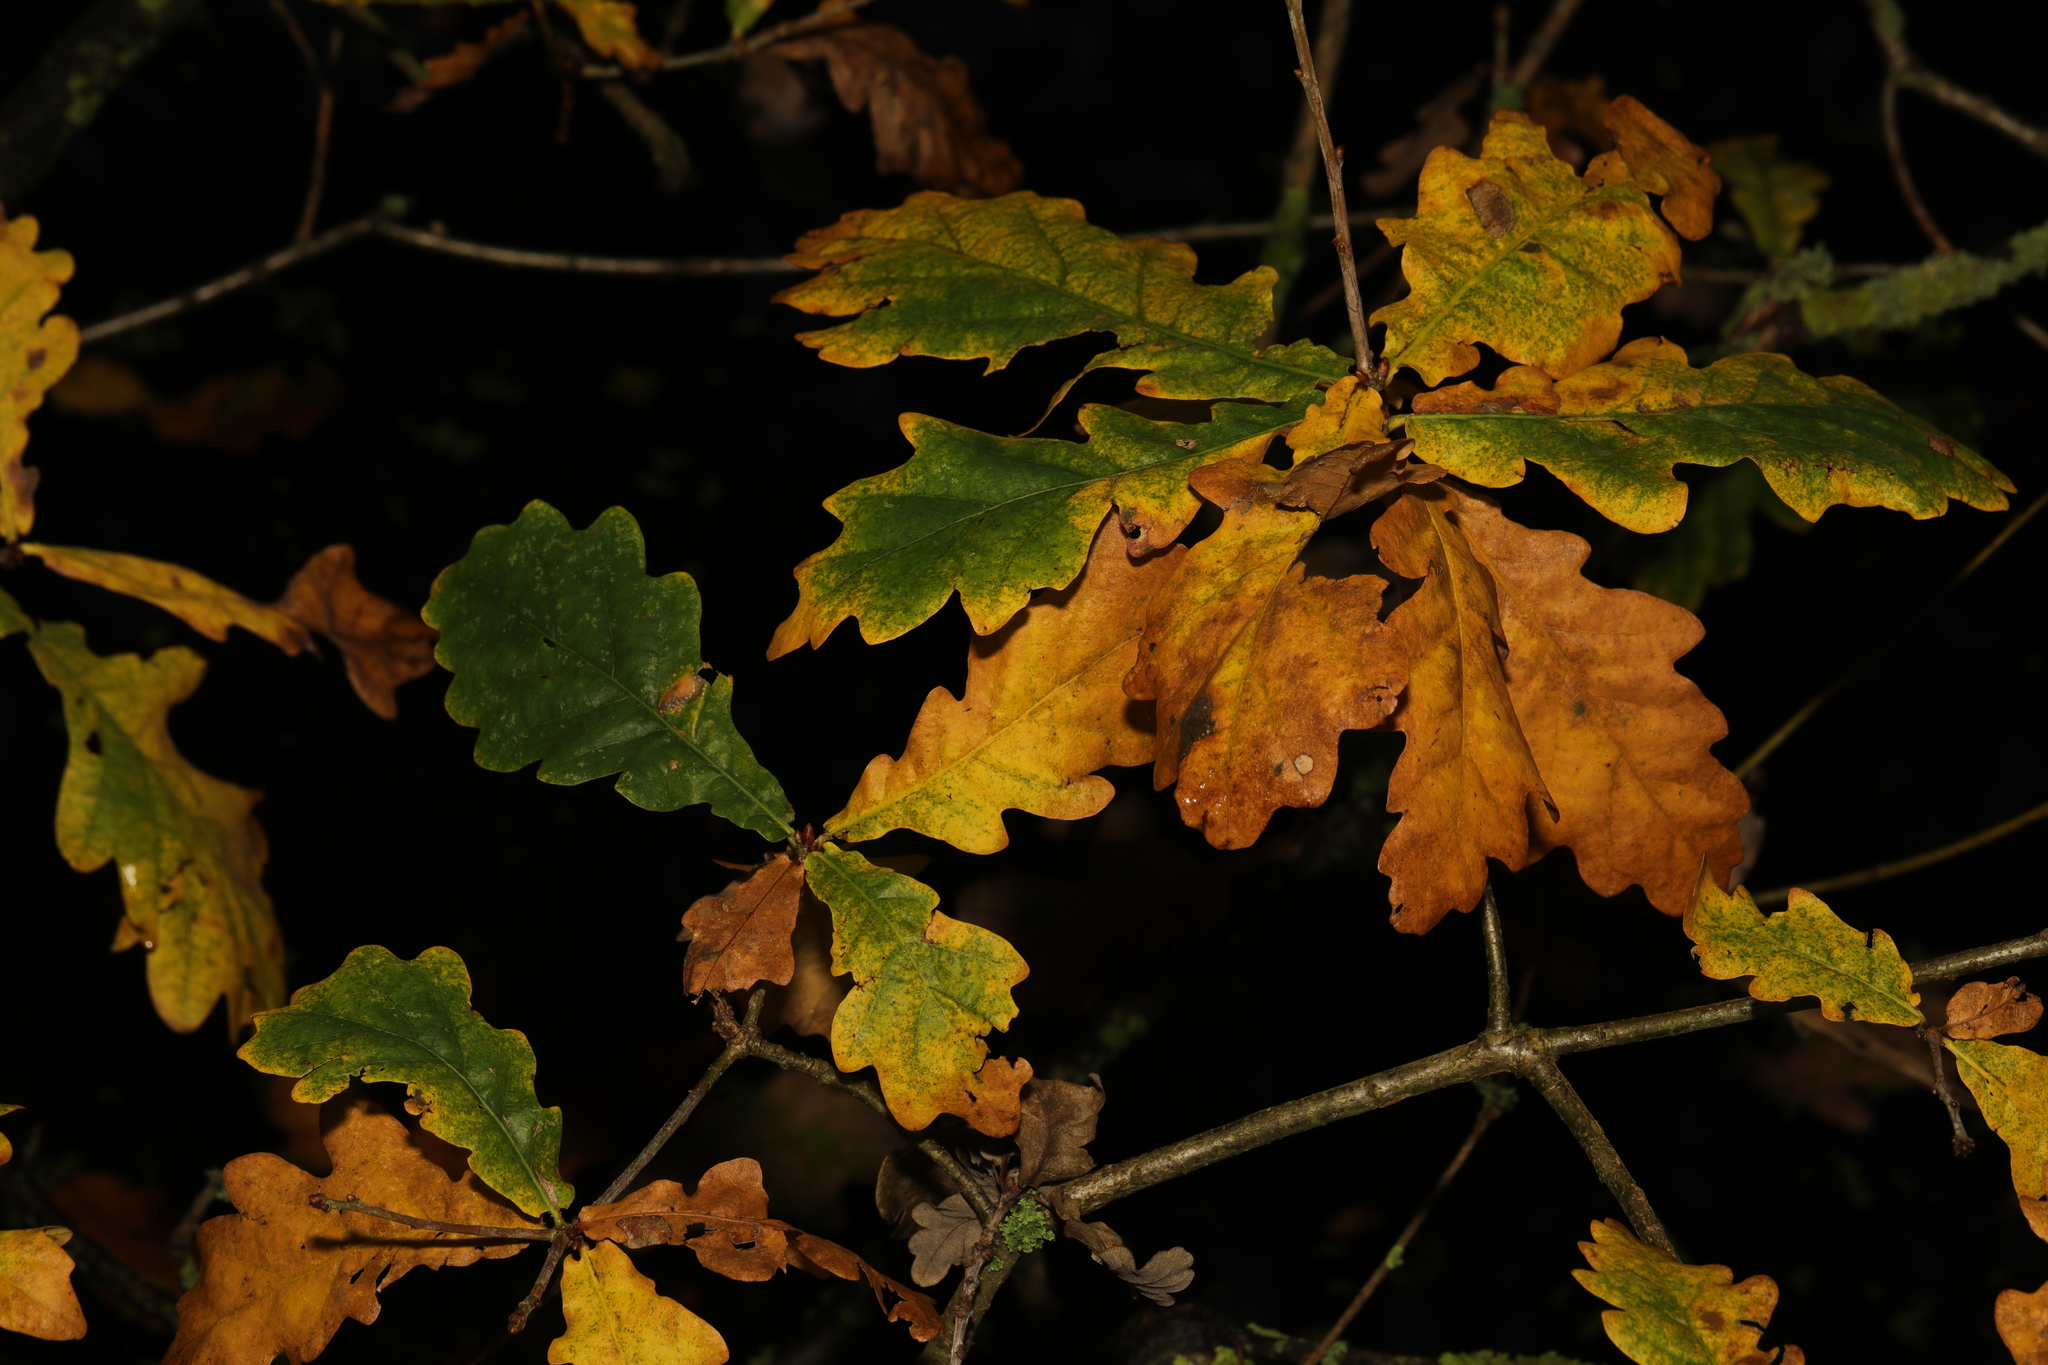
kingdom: Plantae
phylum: Tracheophyta
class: Magnoliopsida
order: Fagales
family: Fagaceae
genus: Quercus
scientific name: Quercus robur
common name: Pedunculate oak
